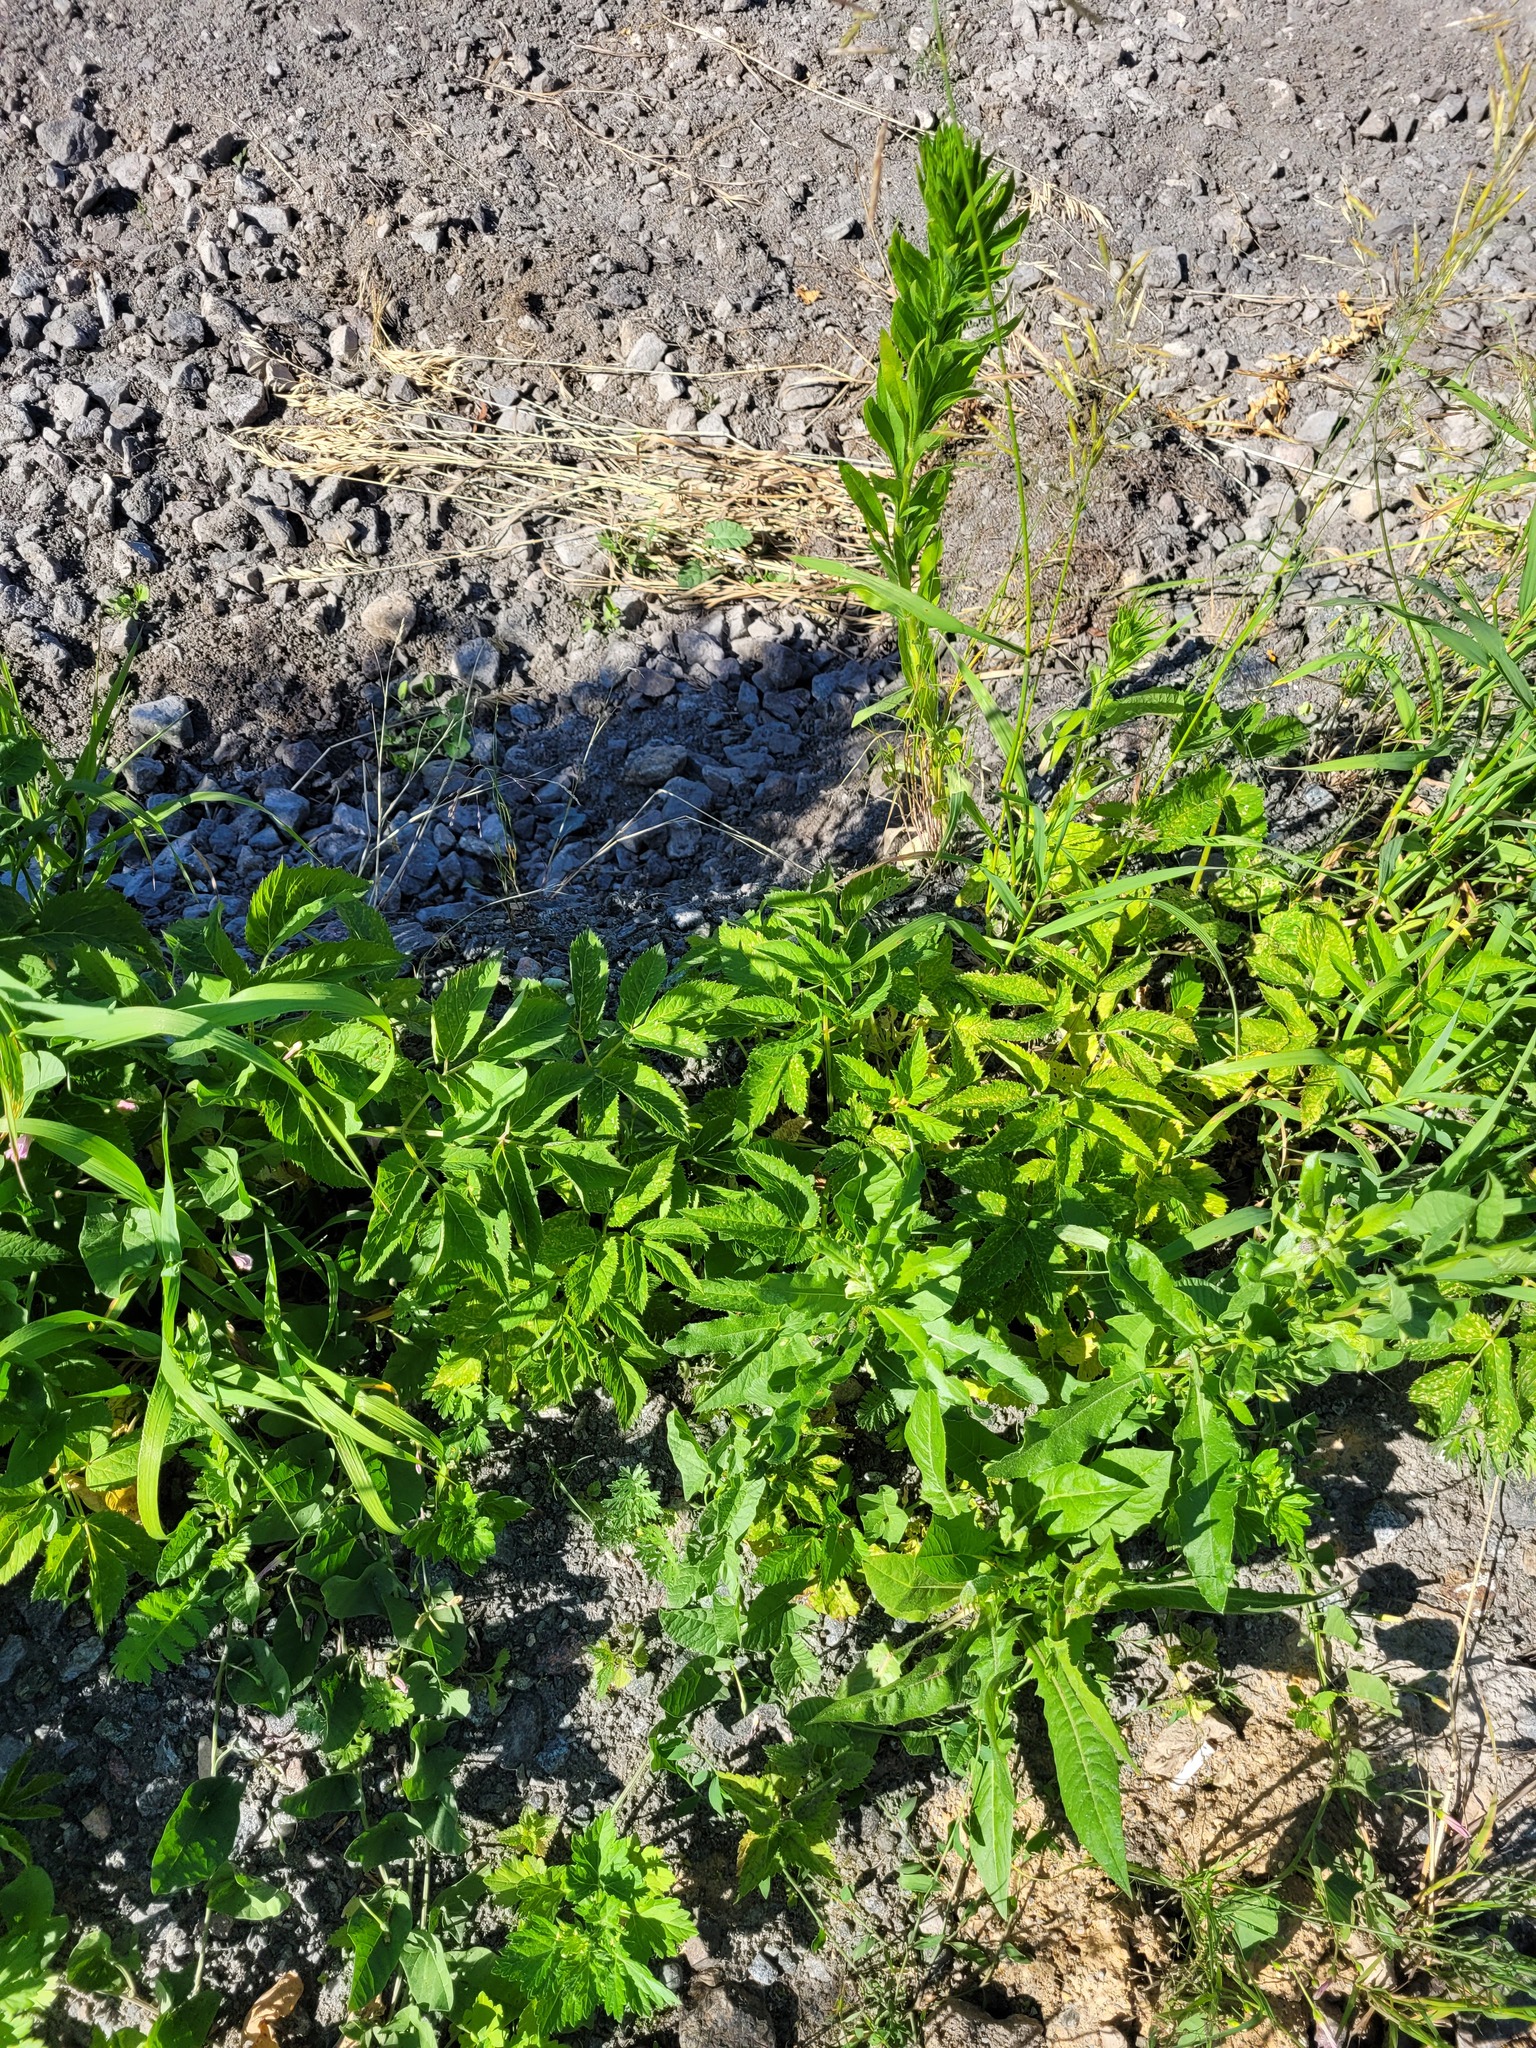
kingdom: Plantae
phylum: Tracheophyta
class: Magnoliopsida
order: Apiales
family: Apiaceae
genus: Aegopodium
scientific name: Aegopodium podagraria
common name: Ground-elder
